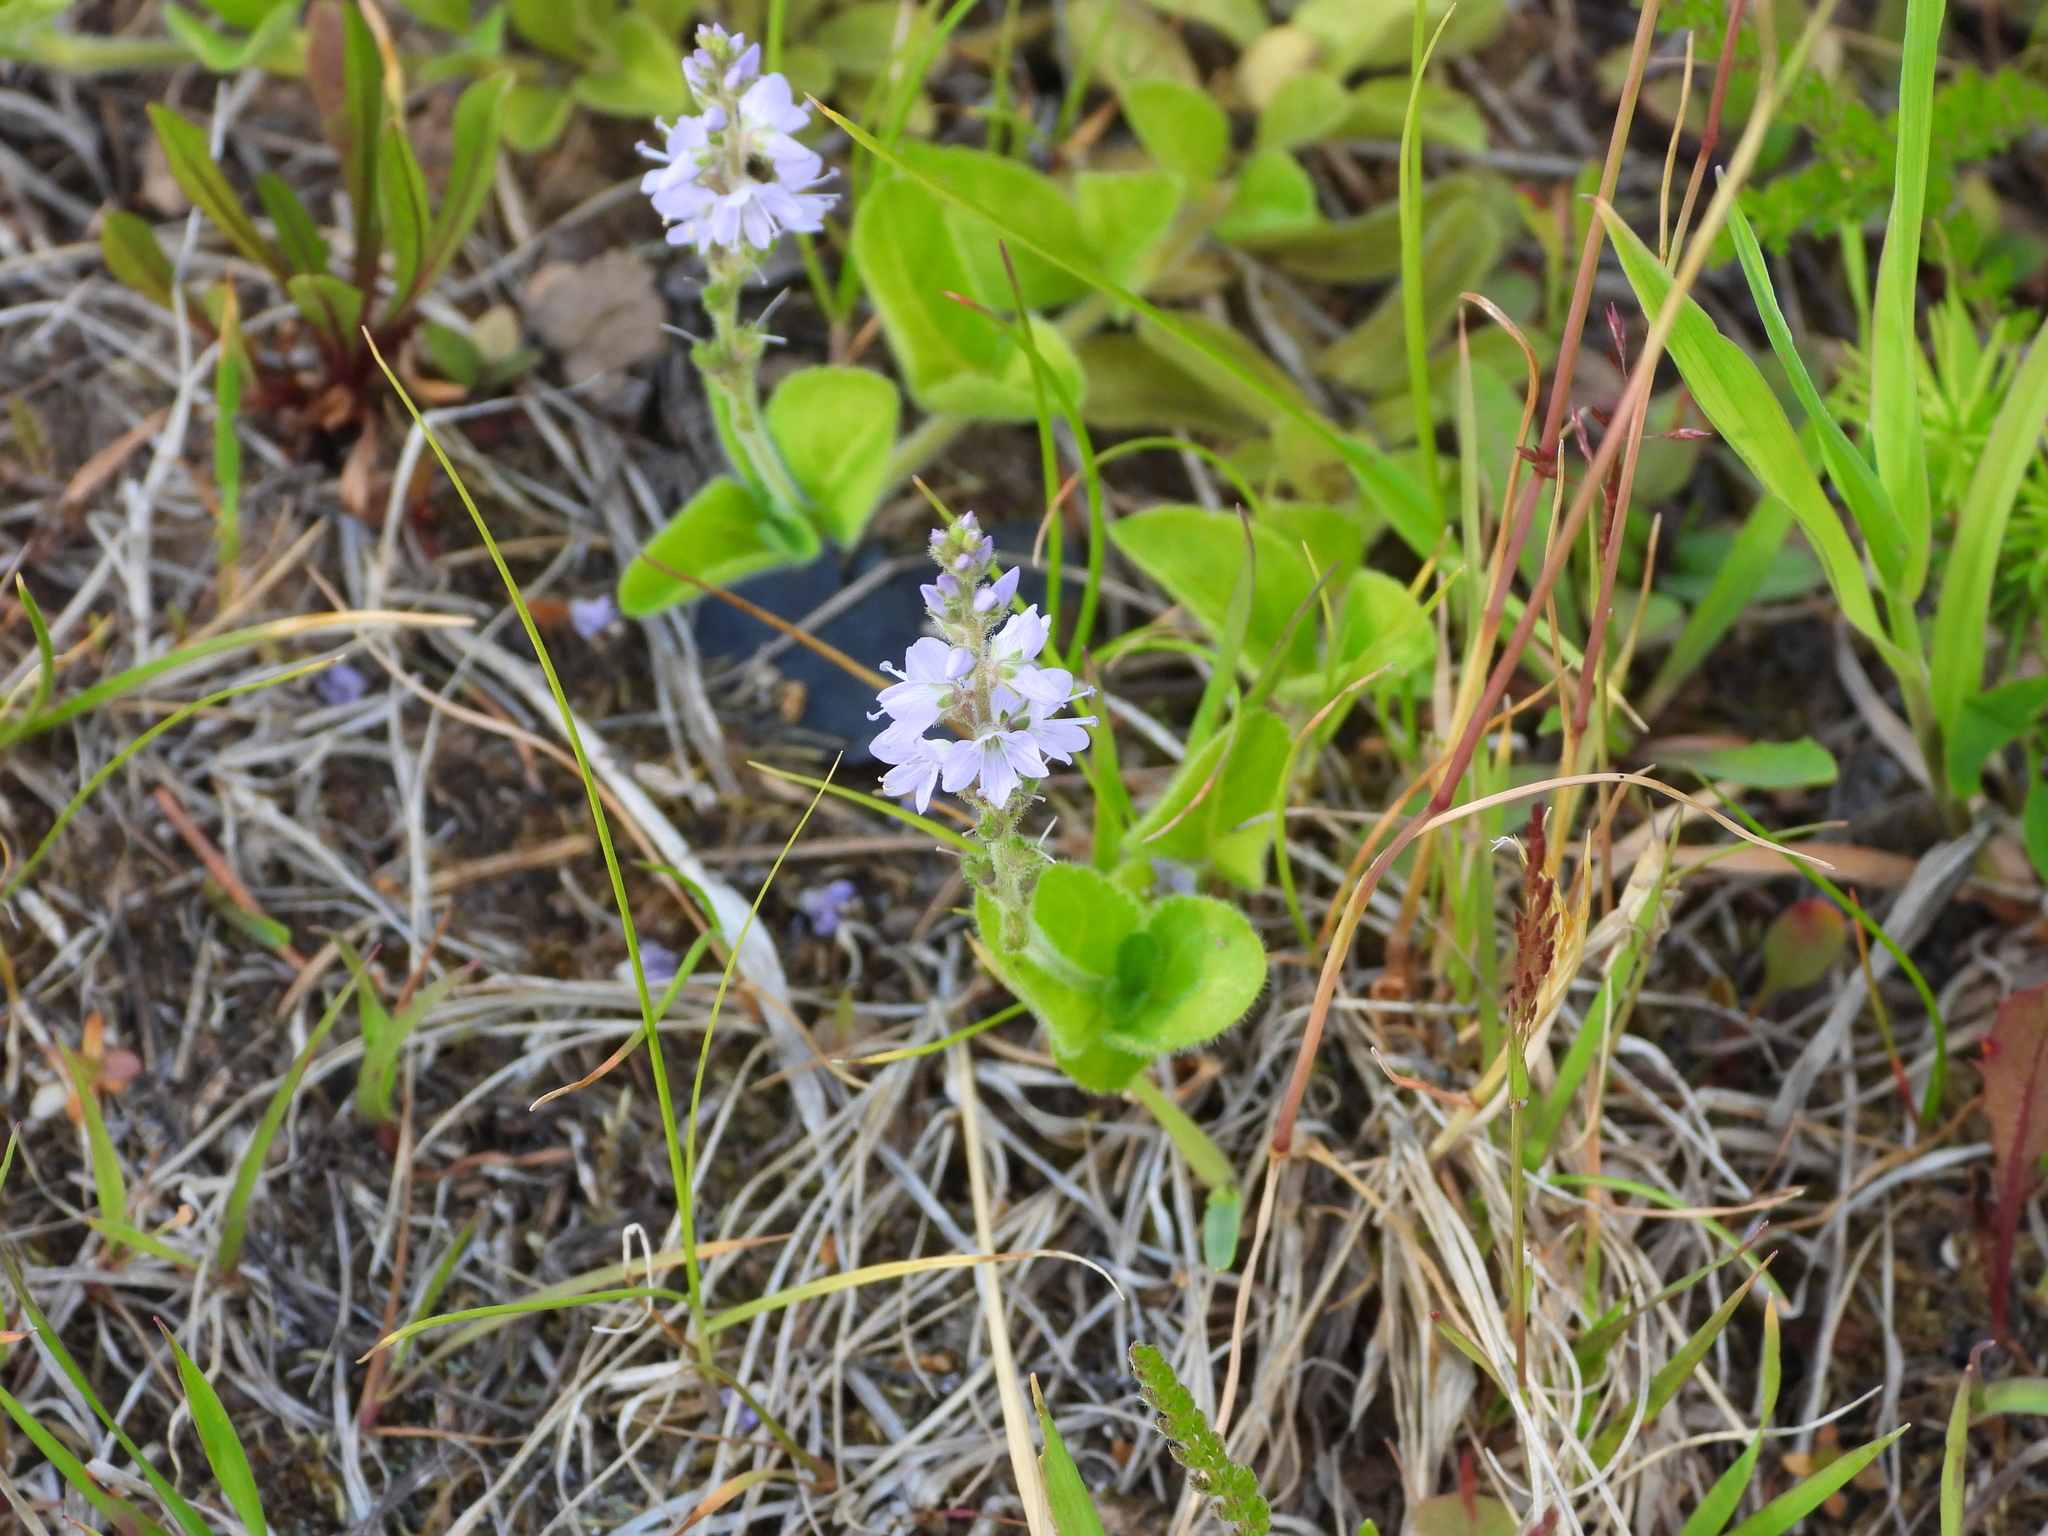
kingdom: Plantae
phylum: Tracheophyta
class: Magnoliopsida
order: Lamiales
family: Plantaginaceae
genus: Veronica
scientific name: Veronica officinalis
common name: Common speedwell
